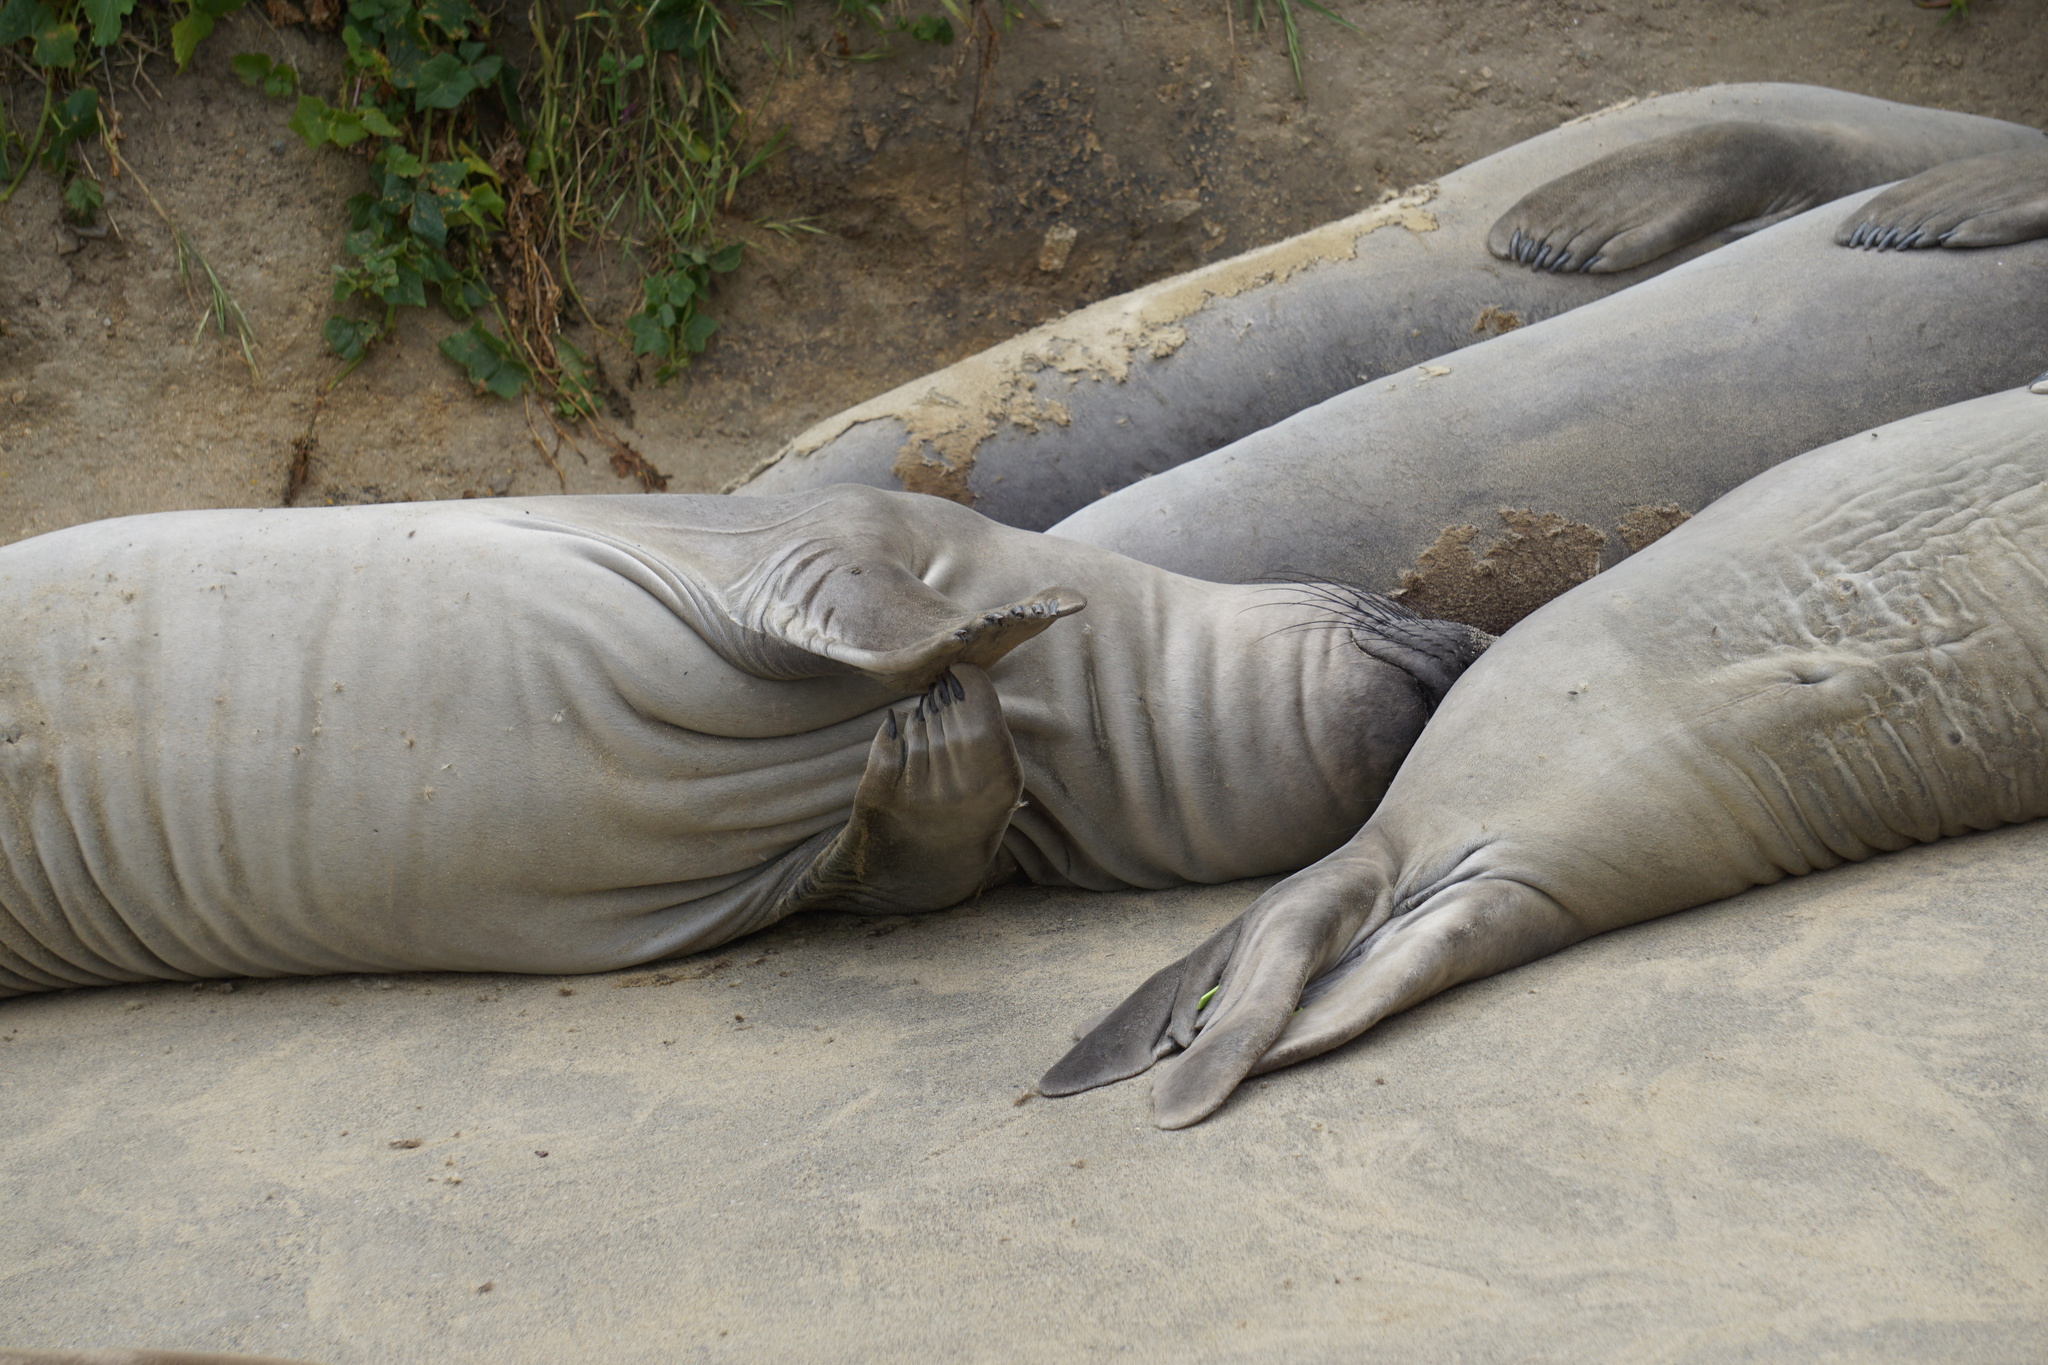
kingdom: Animalia
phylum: Chordata
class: Mammalia
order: Carnivora
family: Phocidae
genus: Mirounga
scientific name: Mirounga angustirostris
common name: Northern elephant seal
